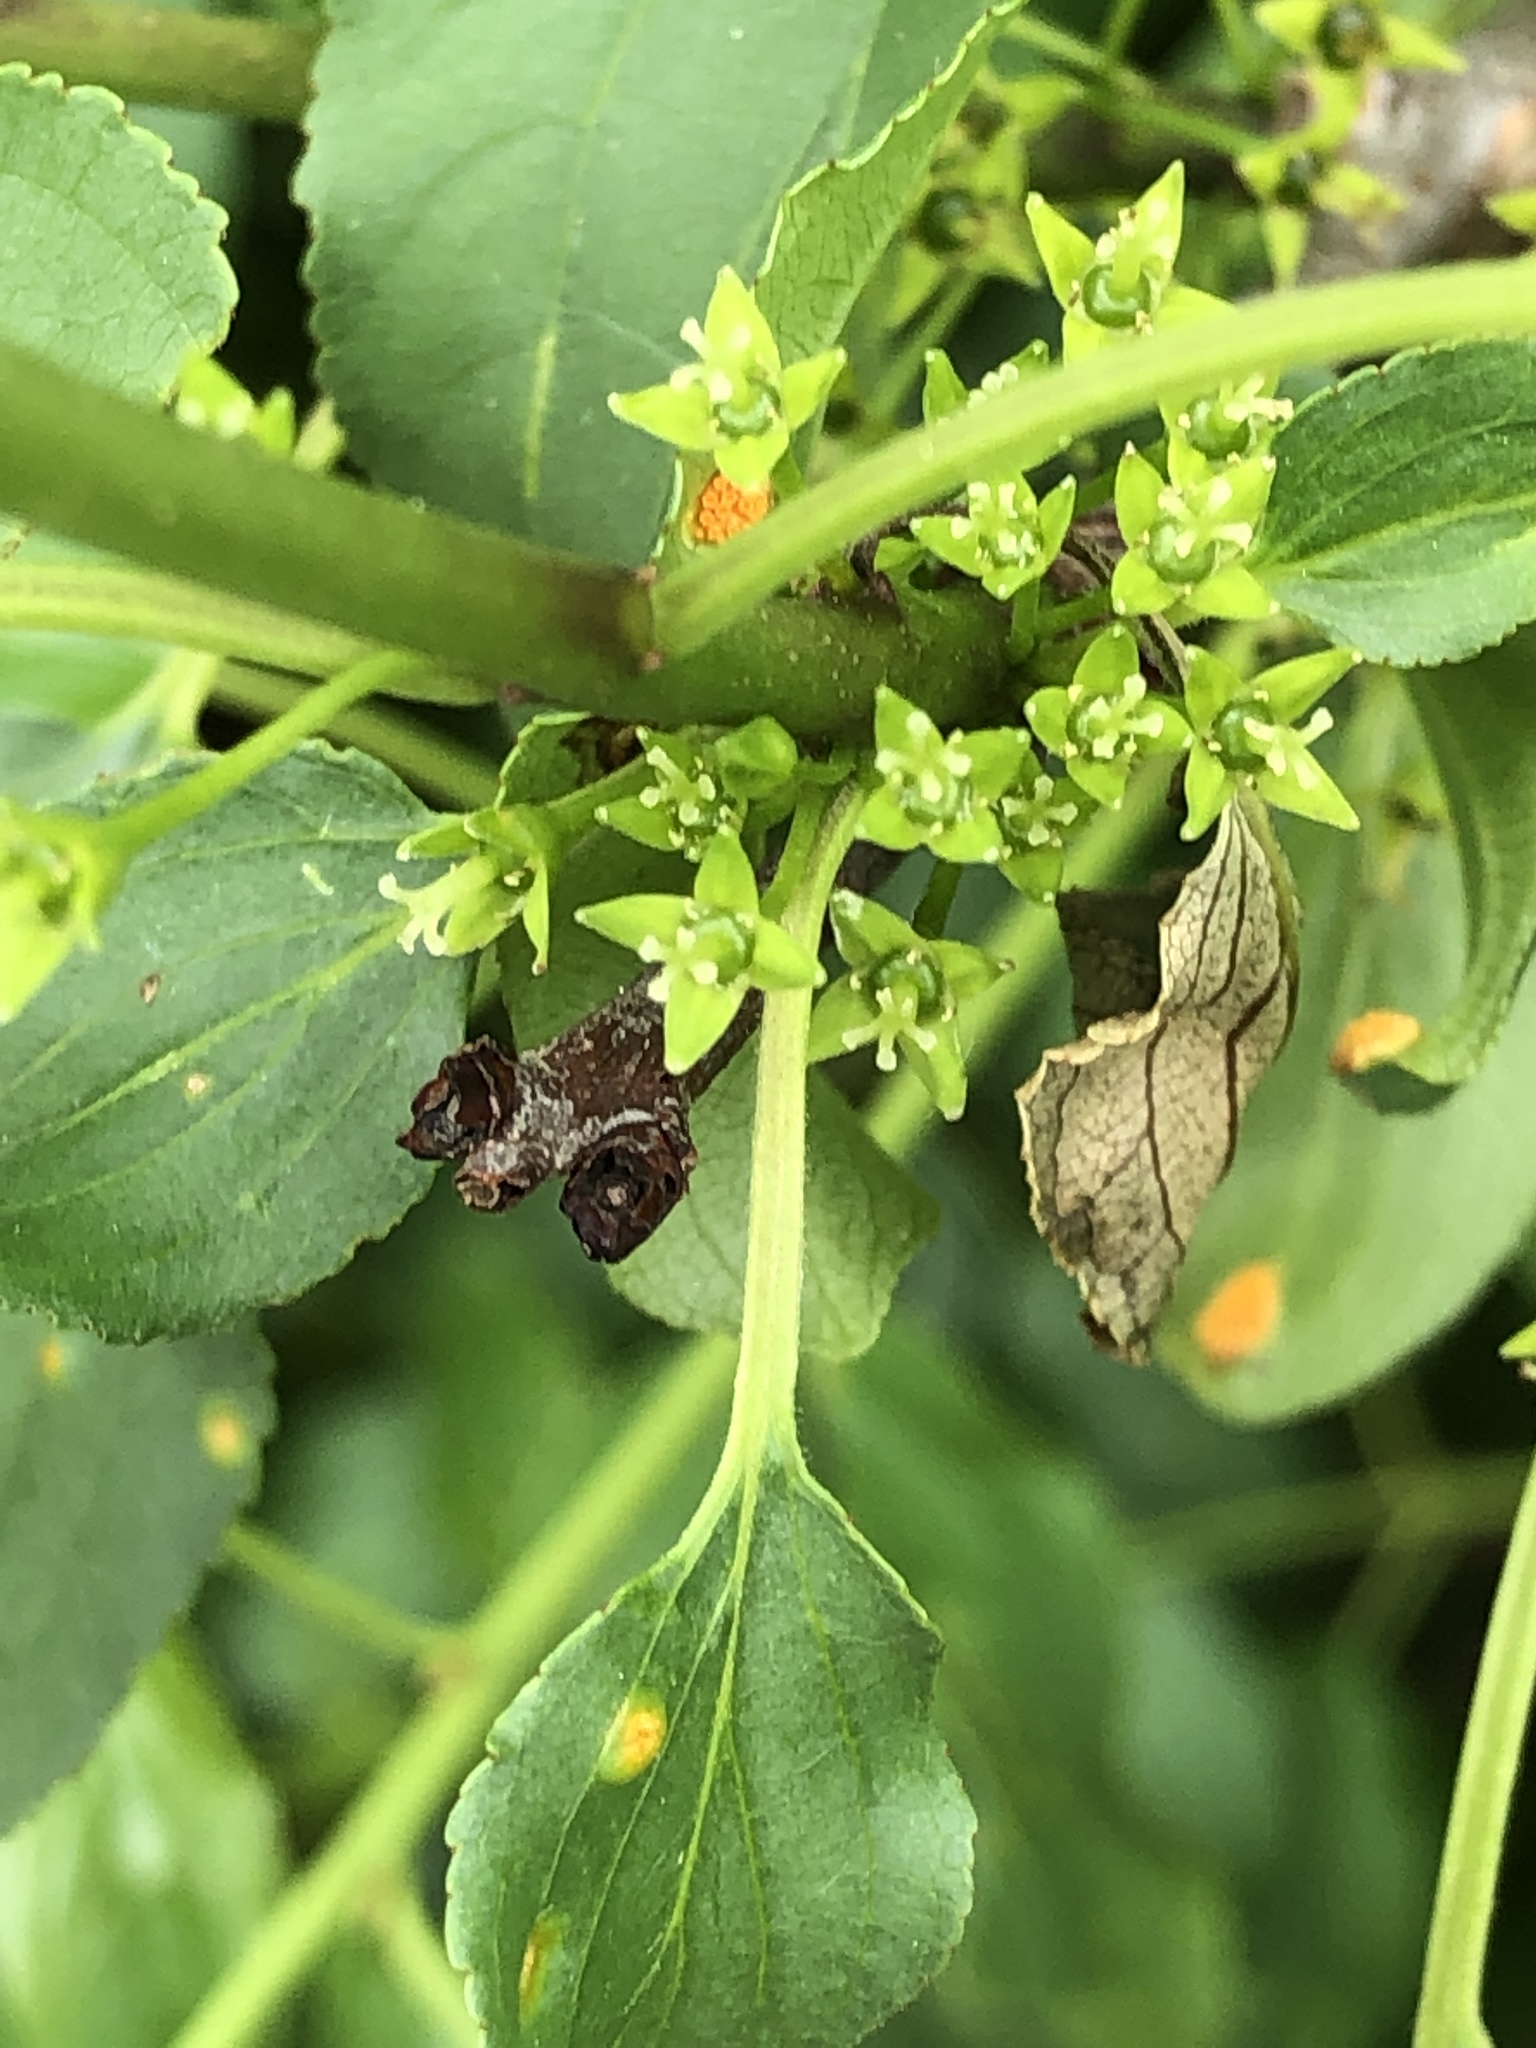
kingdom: Plantae
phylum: Tracheophyta
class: Magnoliopsida
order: Rosales
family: Rhamnaceae
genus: Rhamnus
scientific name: Rhamnus cathartica
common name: Common buckthorn
